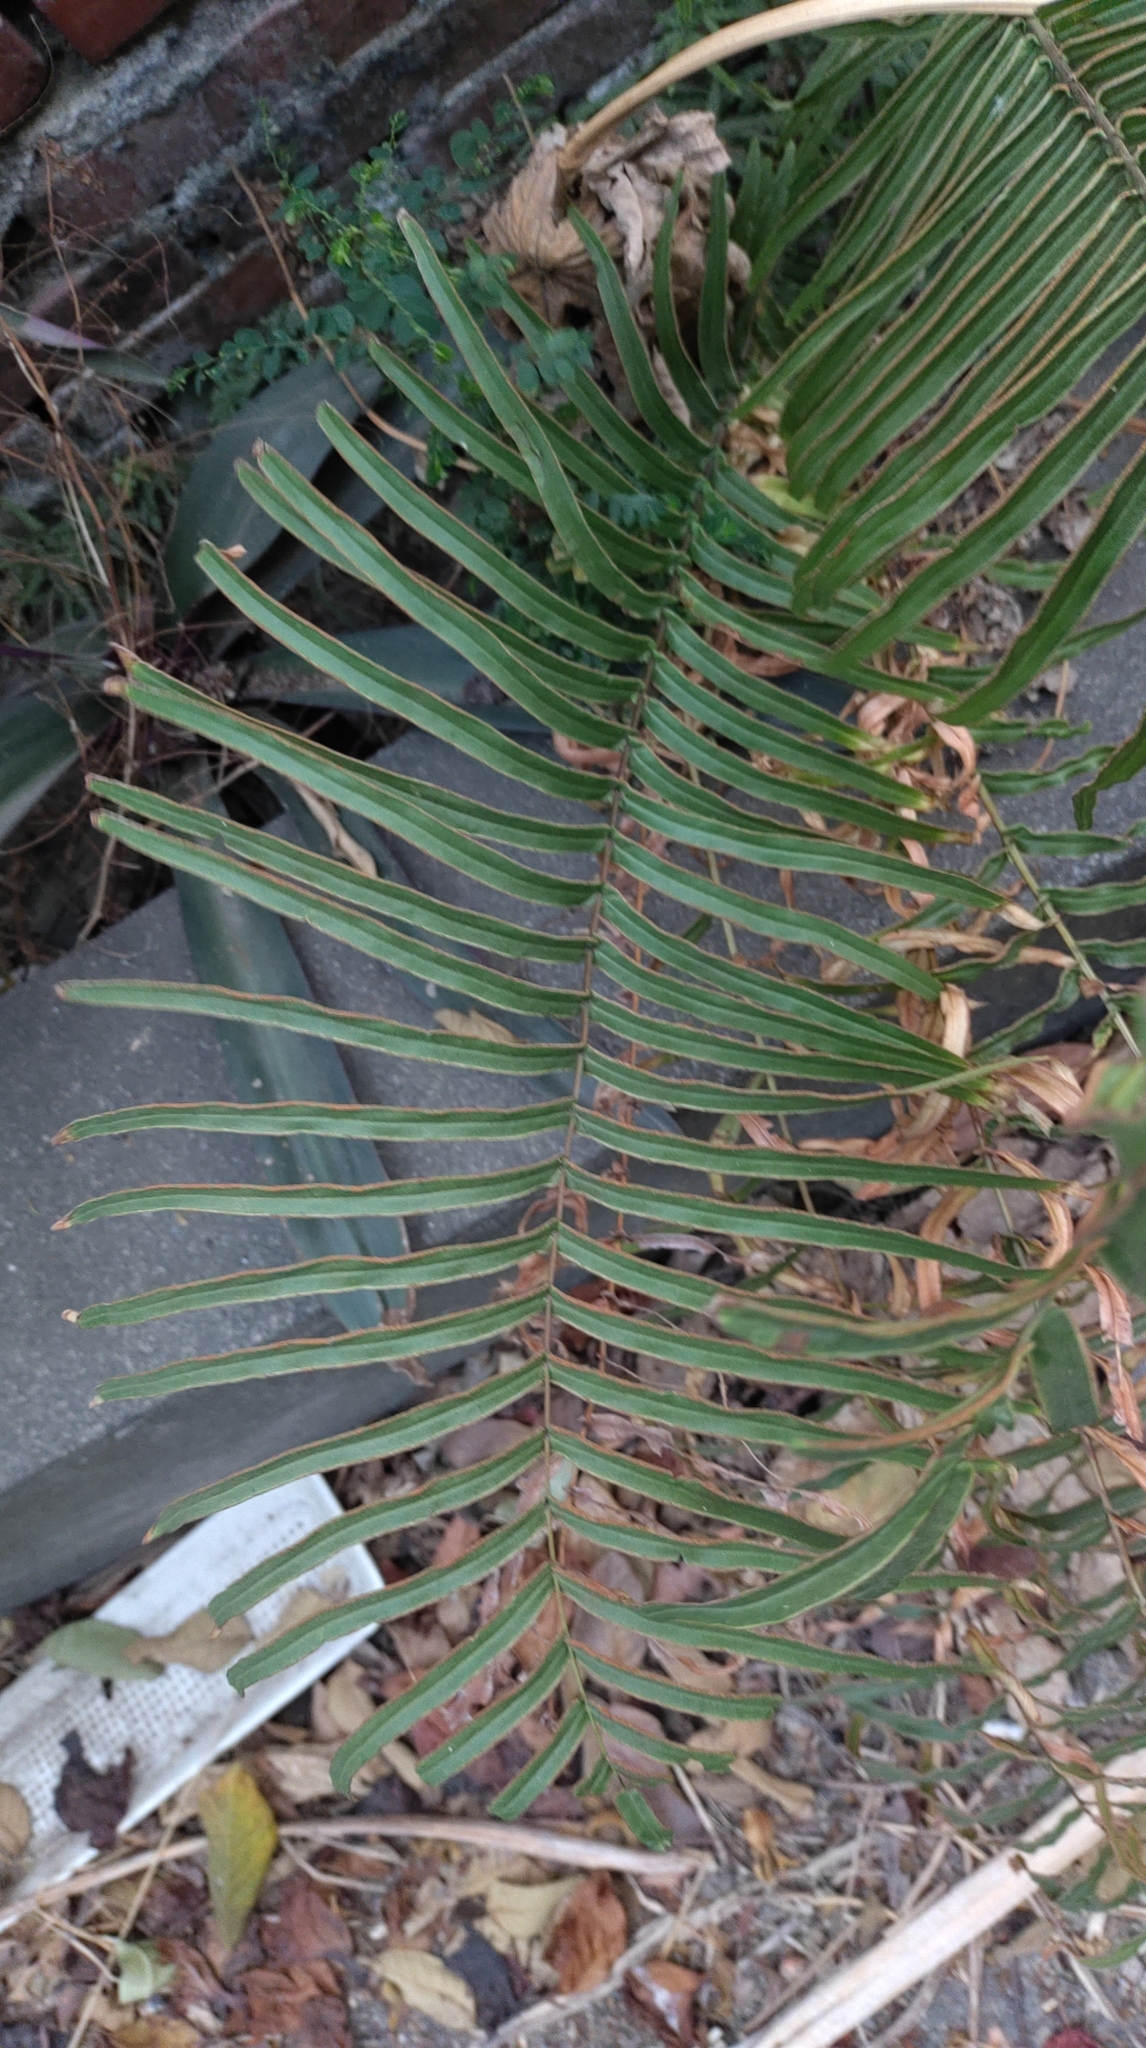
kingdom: Plantae
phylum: Tracheophyta
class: Polypodiopsida
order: Polypodiales
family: Pteridaceae
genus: Pteris
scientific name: Pteris vittata
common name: Ladder brake
